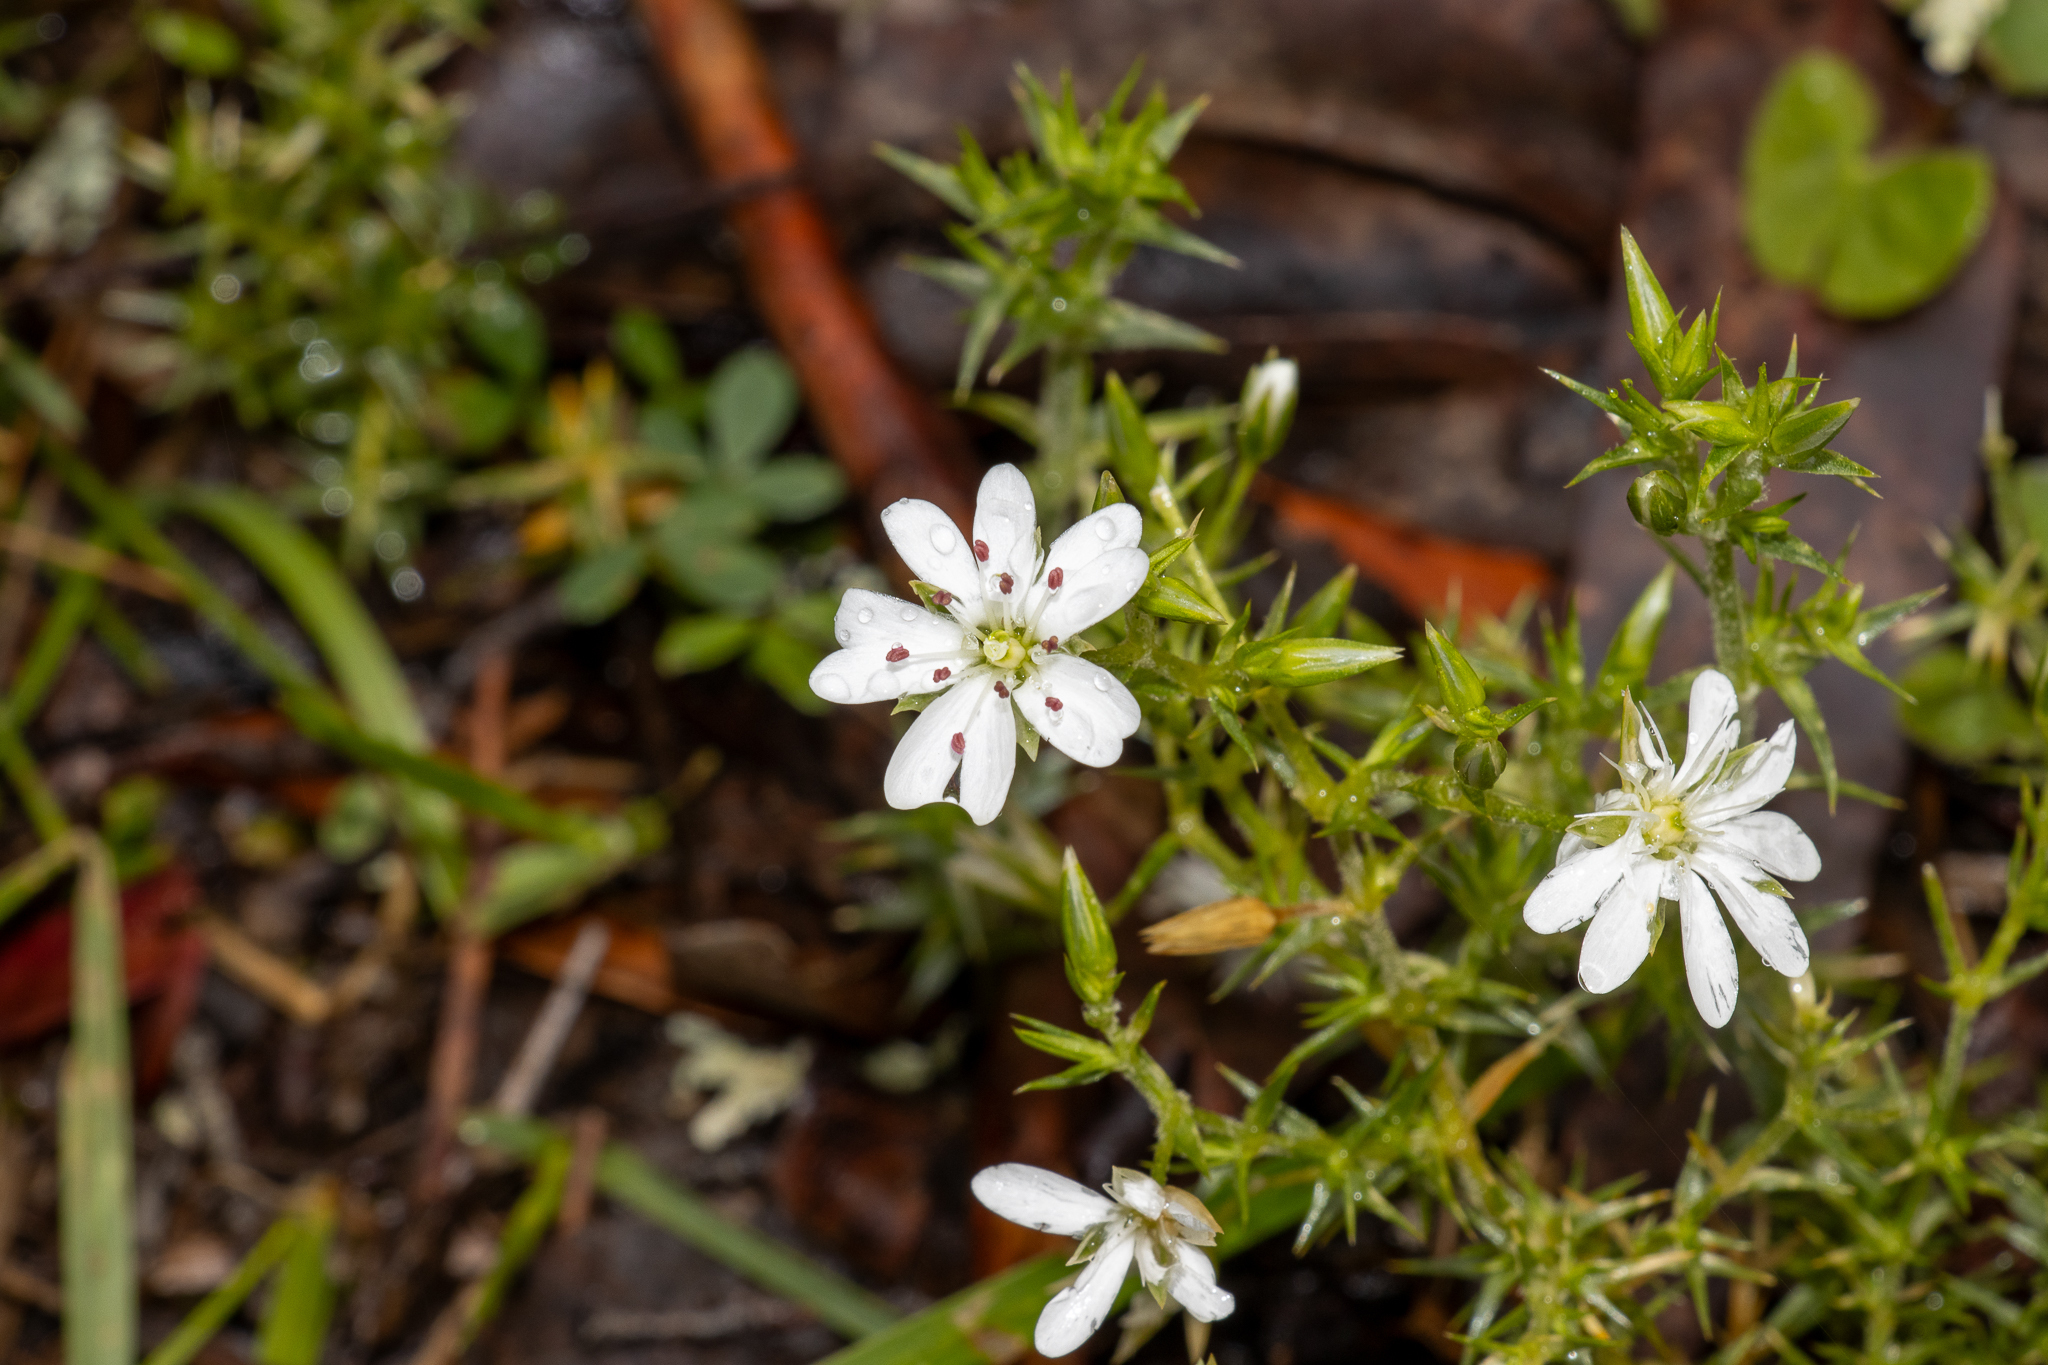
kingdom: Plantae
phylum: Tracheophyta
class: Magnoliopsida
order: Caryophyllales
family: Caryophyllaceae
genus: Stellaria
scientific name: Stellaria pungens
